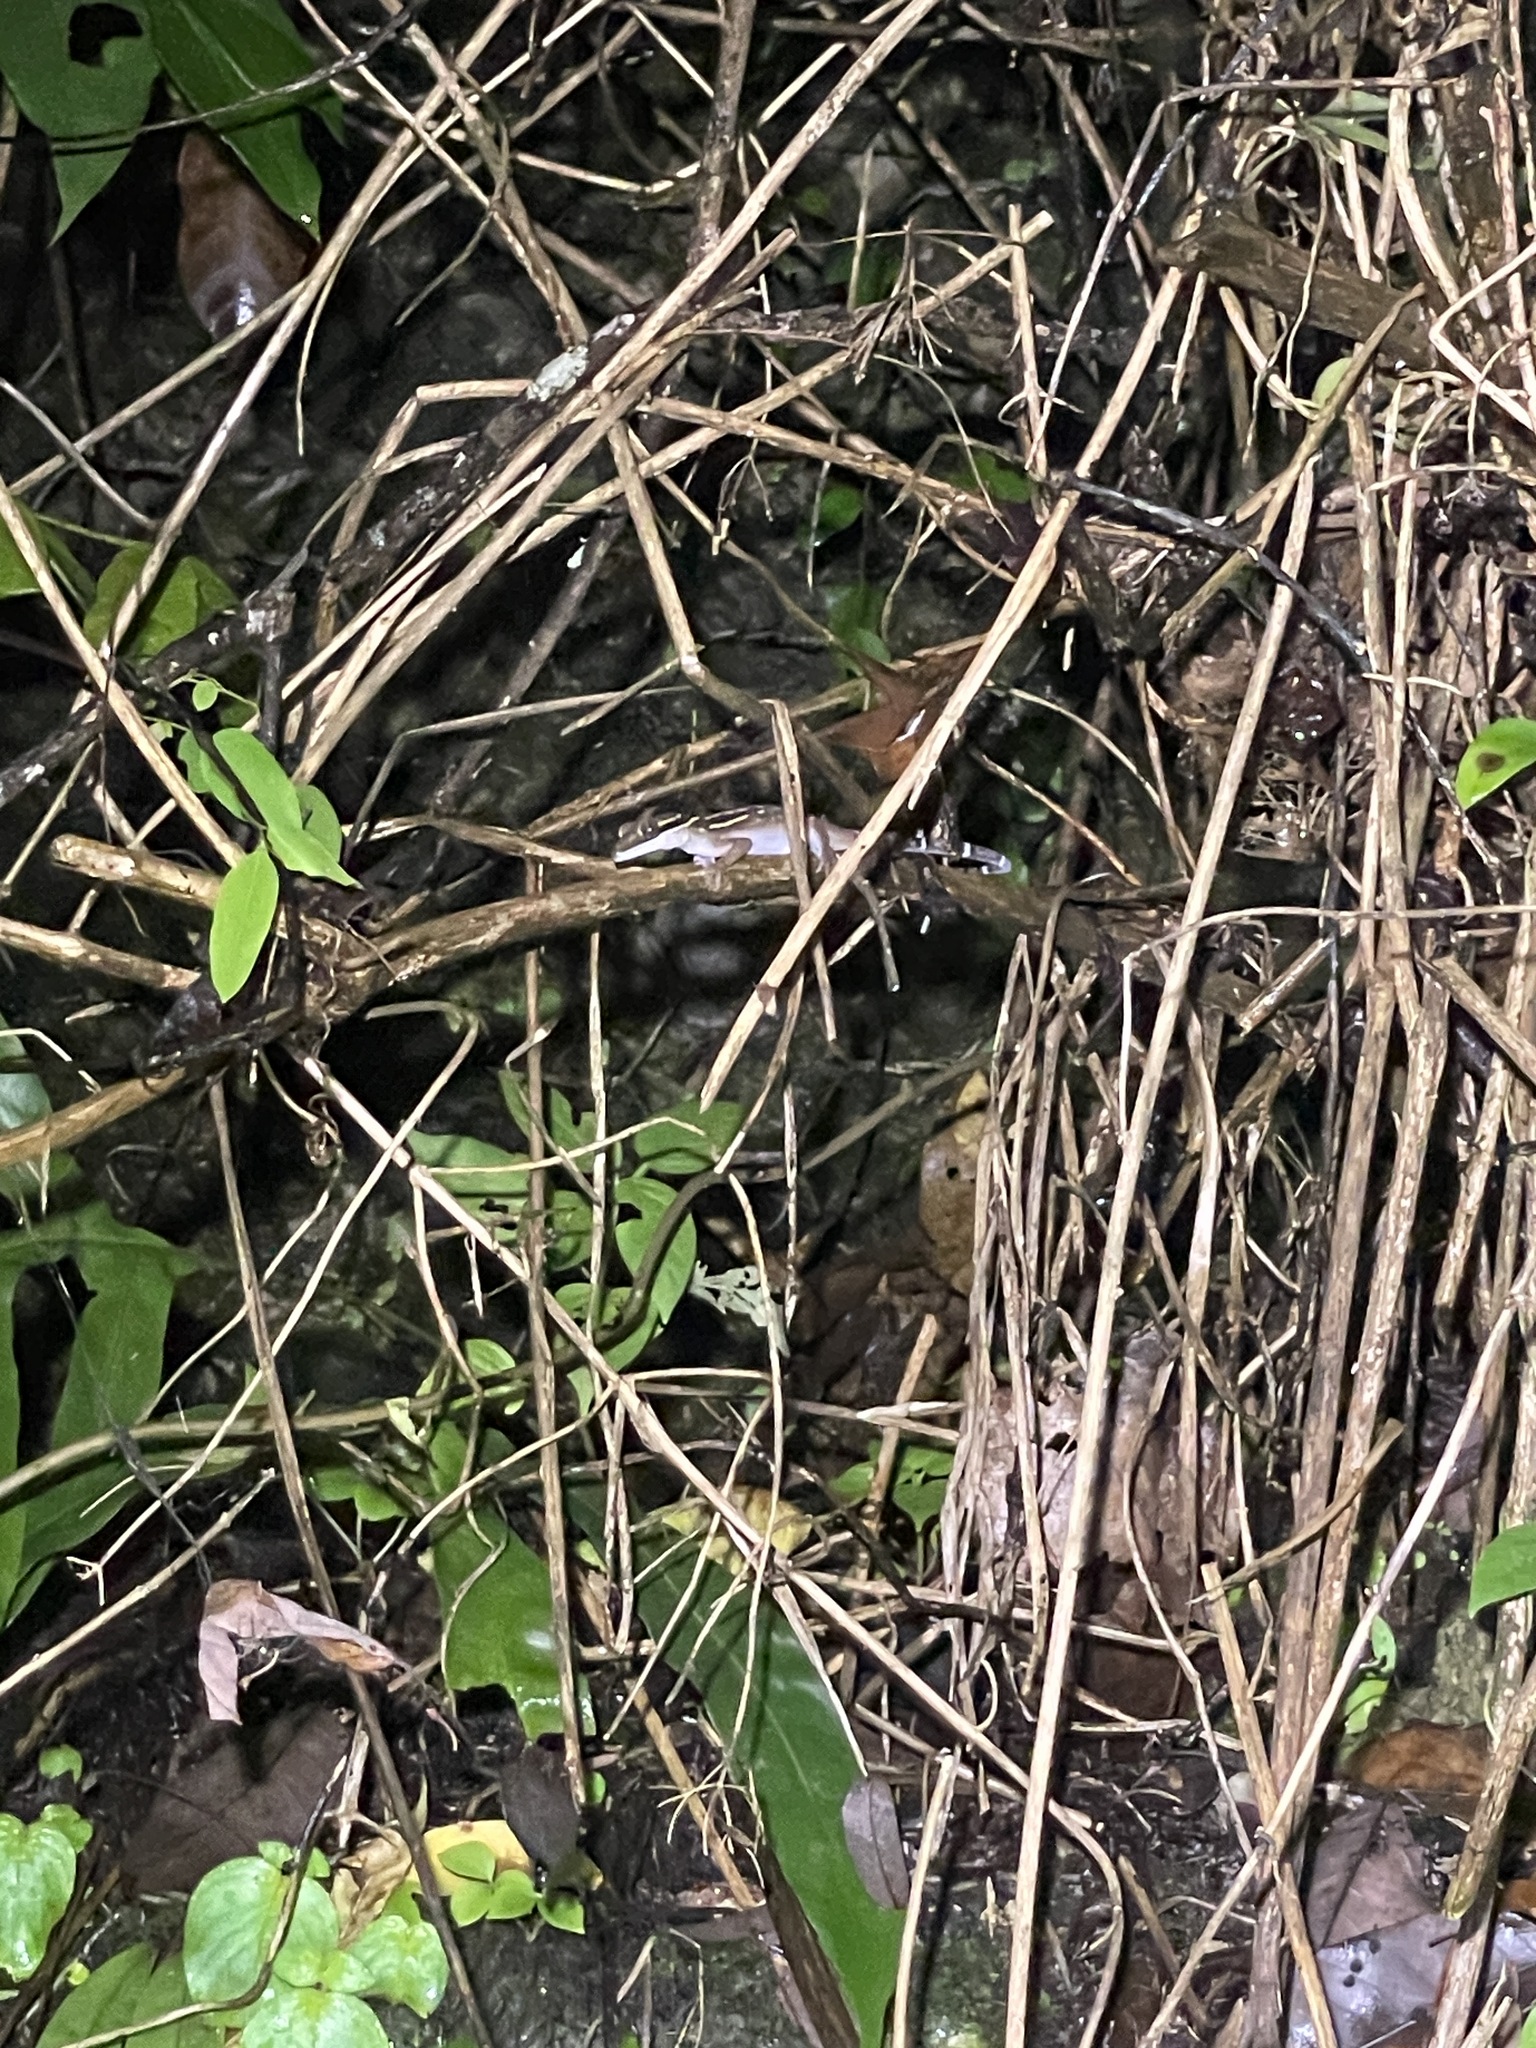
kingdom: Animalia
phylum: Chordata
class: Squamata
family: Gekkonidae
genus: Cyrtodactylus
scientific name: Cyrtodactylus oldhami
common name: Oldham's bow-fingered gecko
